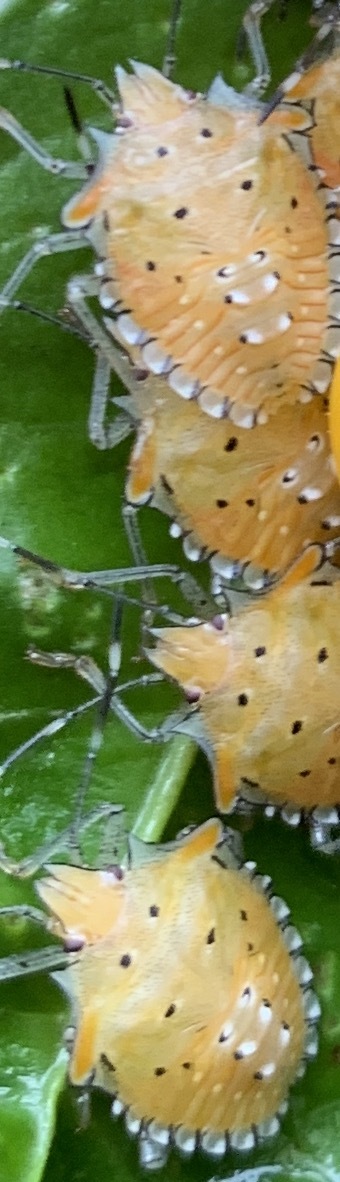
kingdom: Animalia
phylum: Arthropoda
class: Insecta
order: Hemiptera
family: Pentatomidae
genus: Arvelius
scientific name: Arvelius albopunctatus
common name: Tomato stink bug
